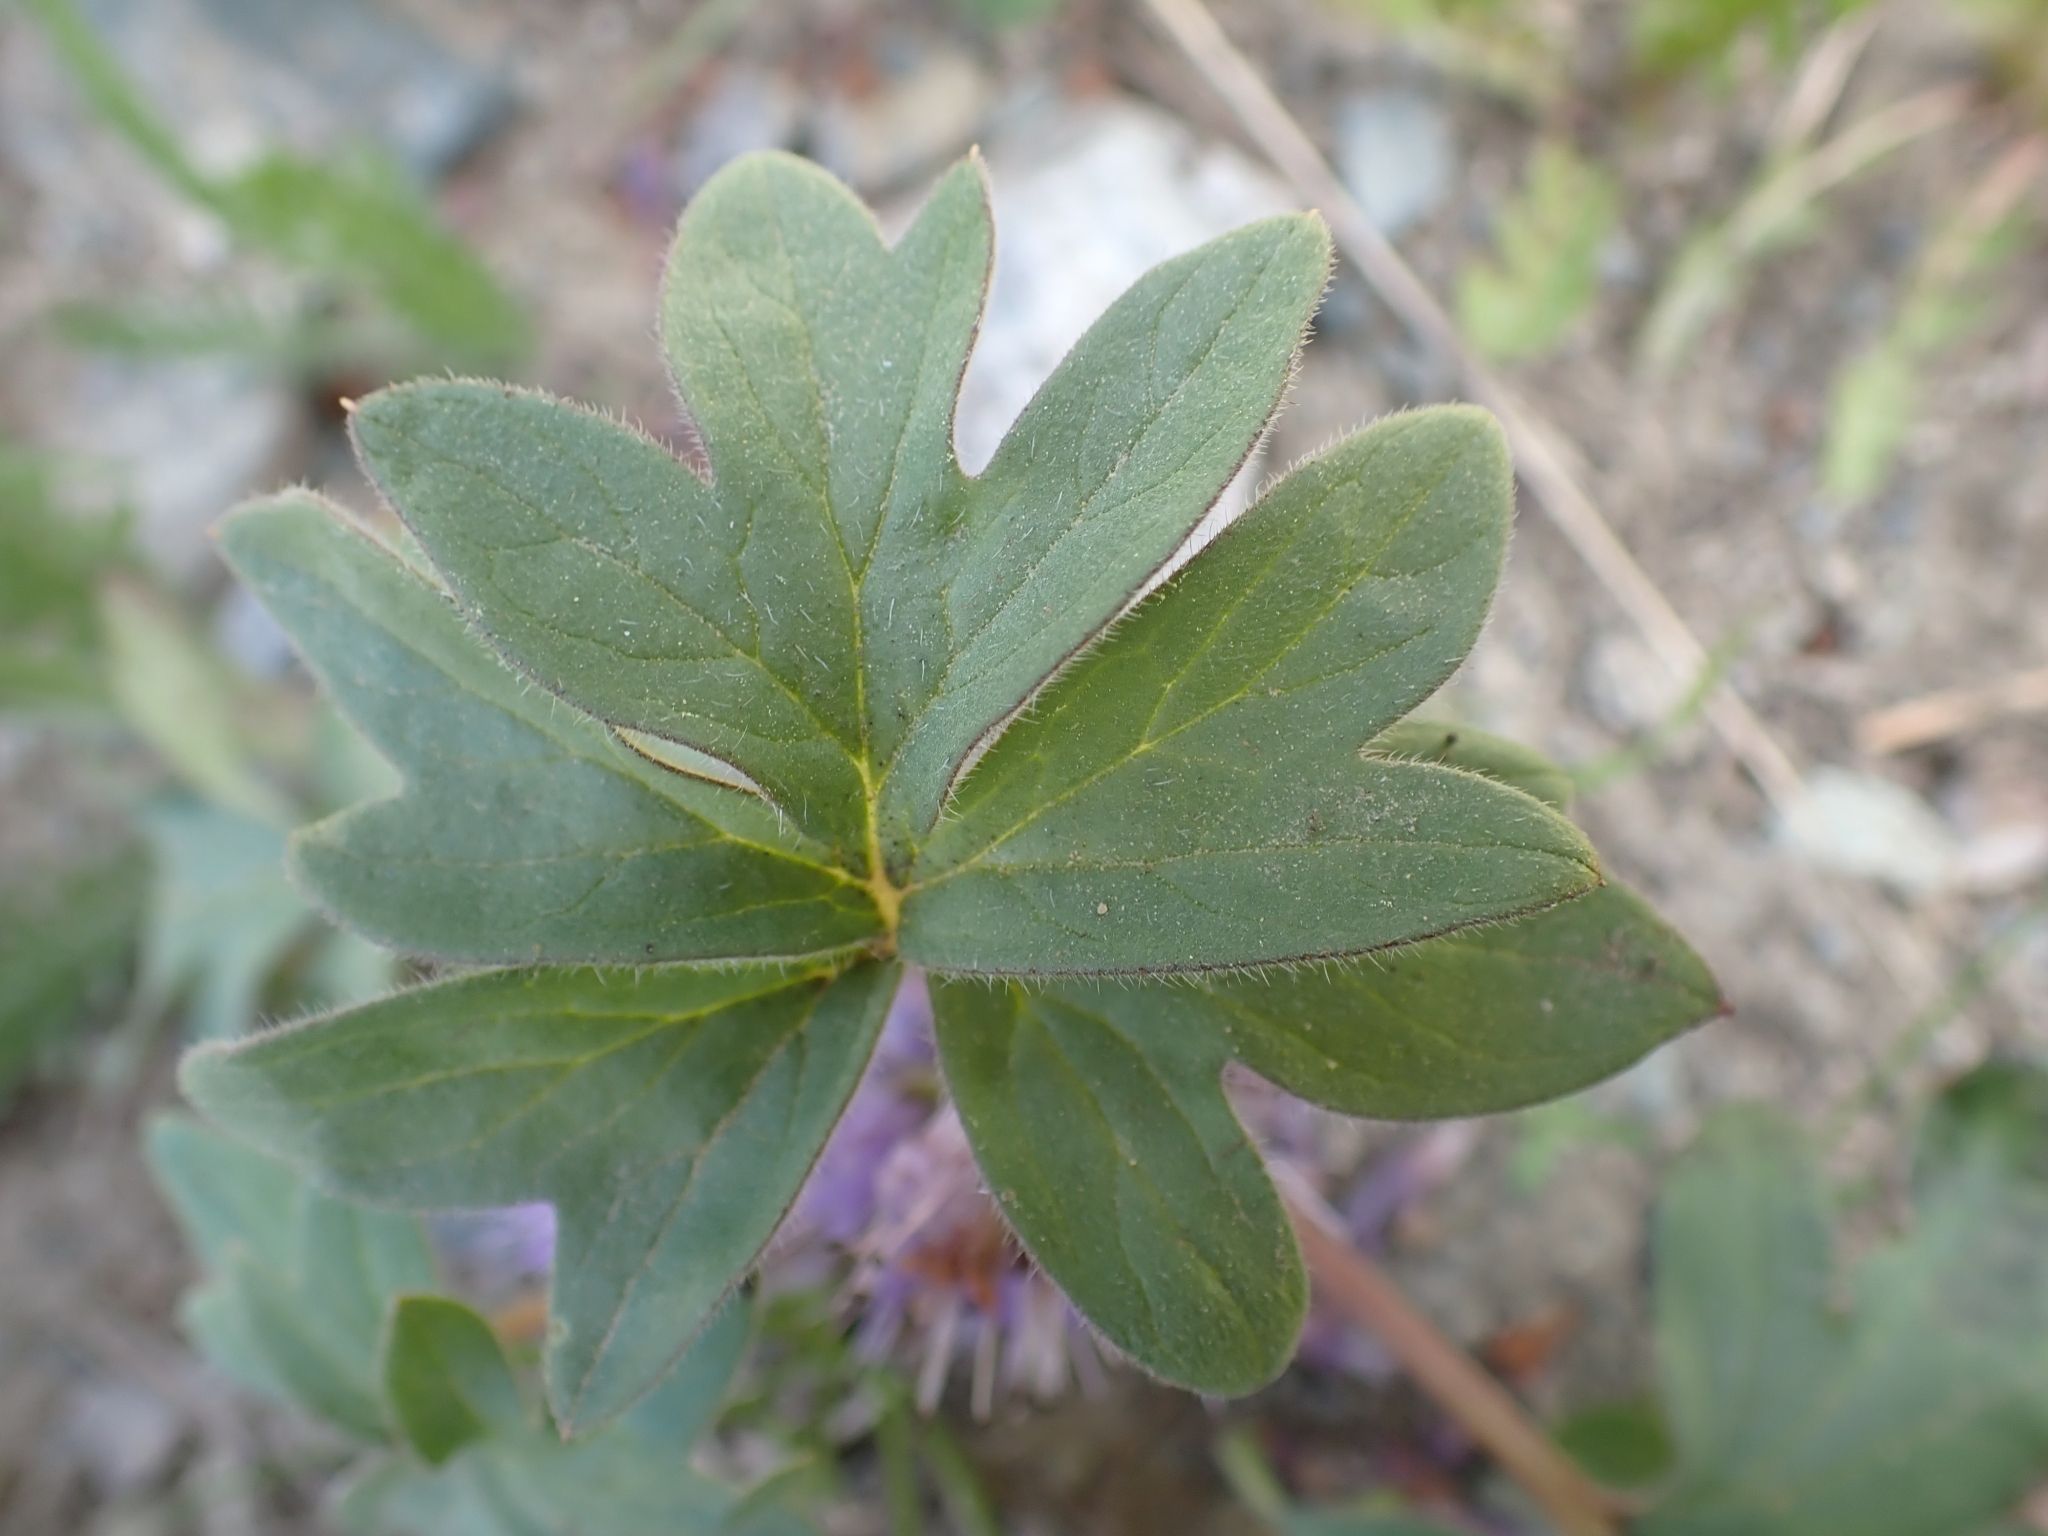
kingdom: Plantae
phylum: Tracheophyta
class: Magnoliopsida
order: Boraginales
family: Hydrophyllaceae
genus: Hydrophyllum
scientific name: Hydrophyllum capitatum
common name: Woollen-breeches
